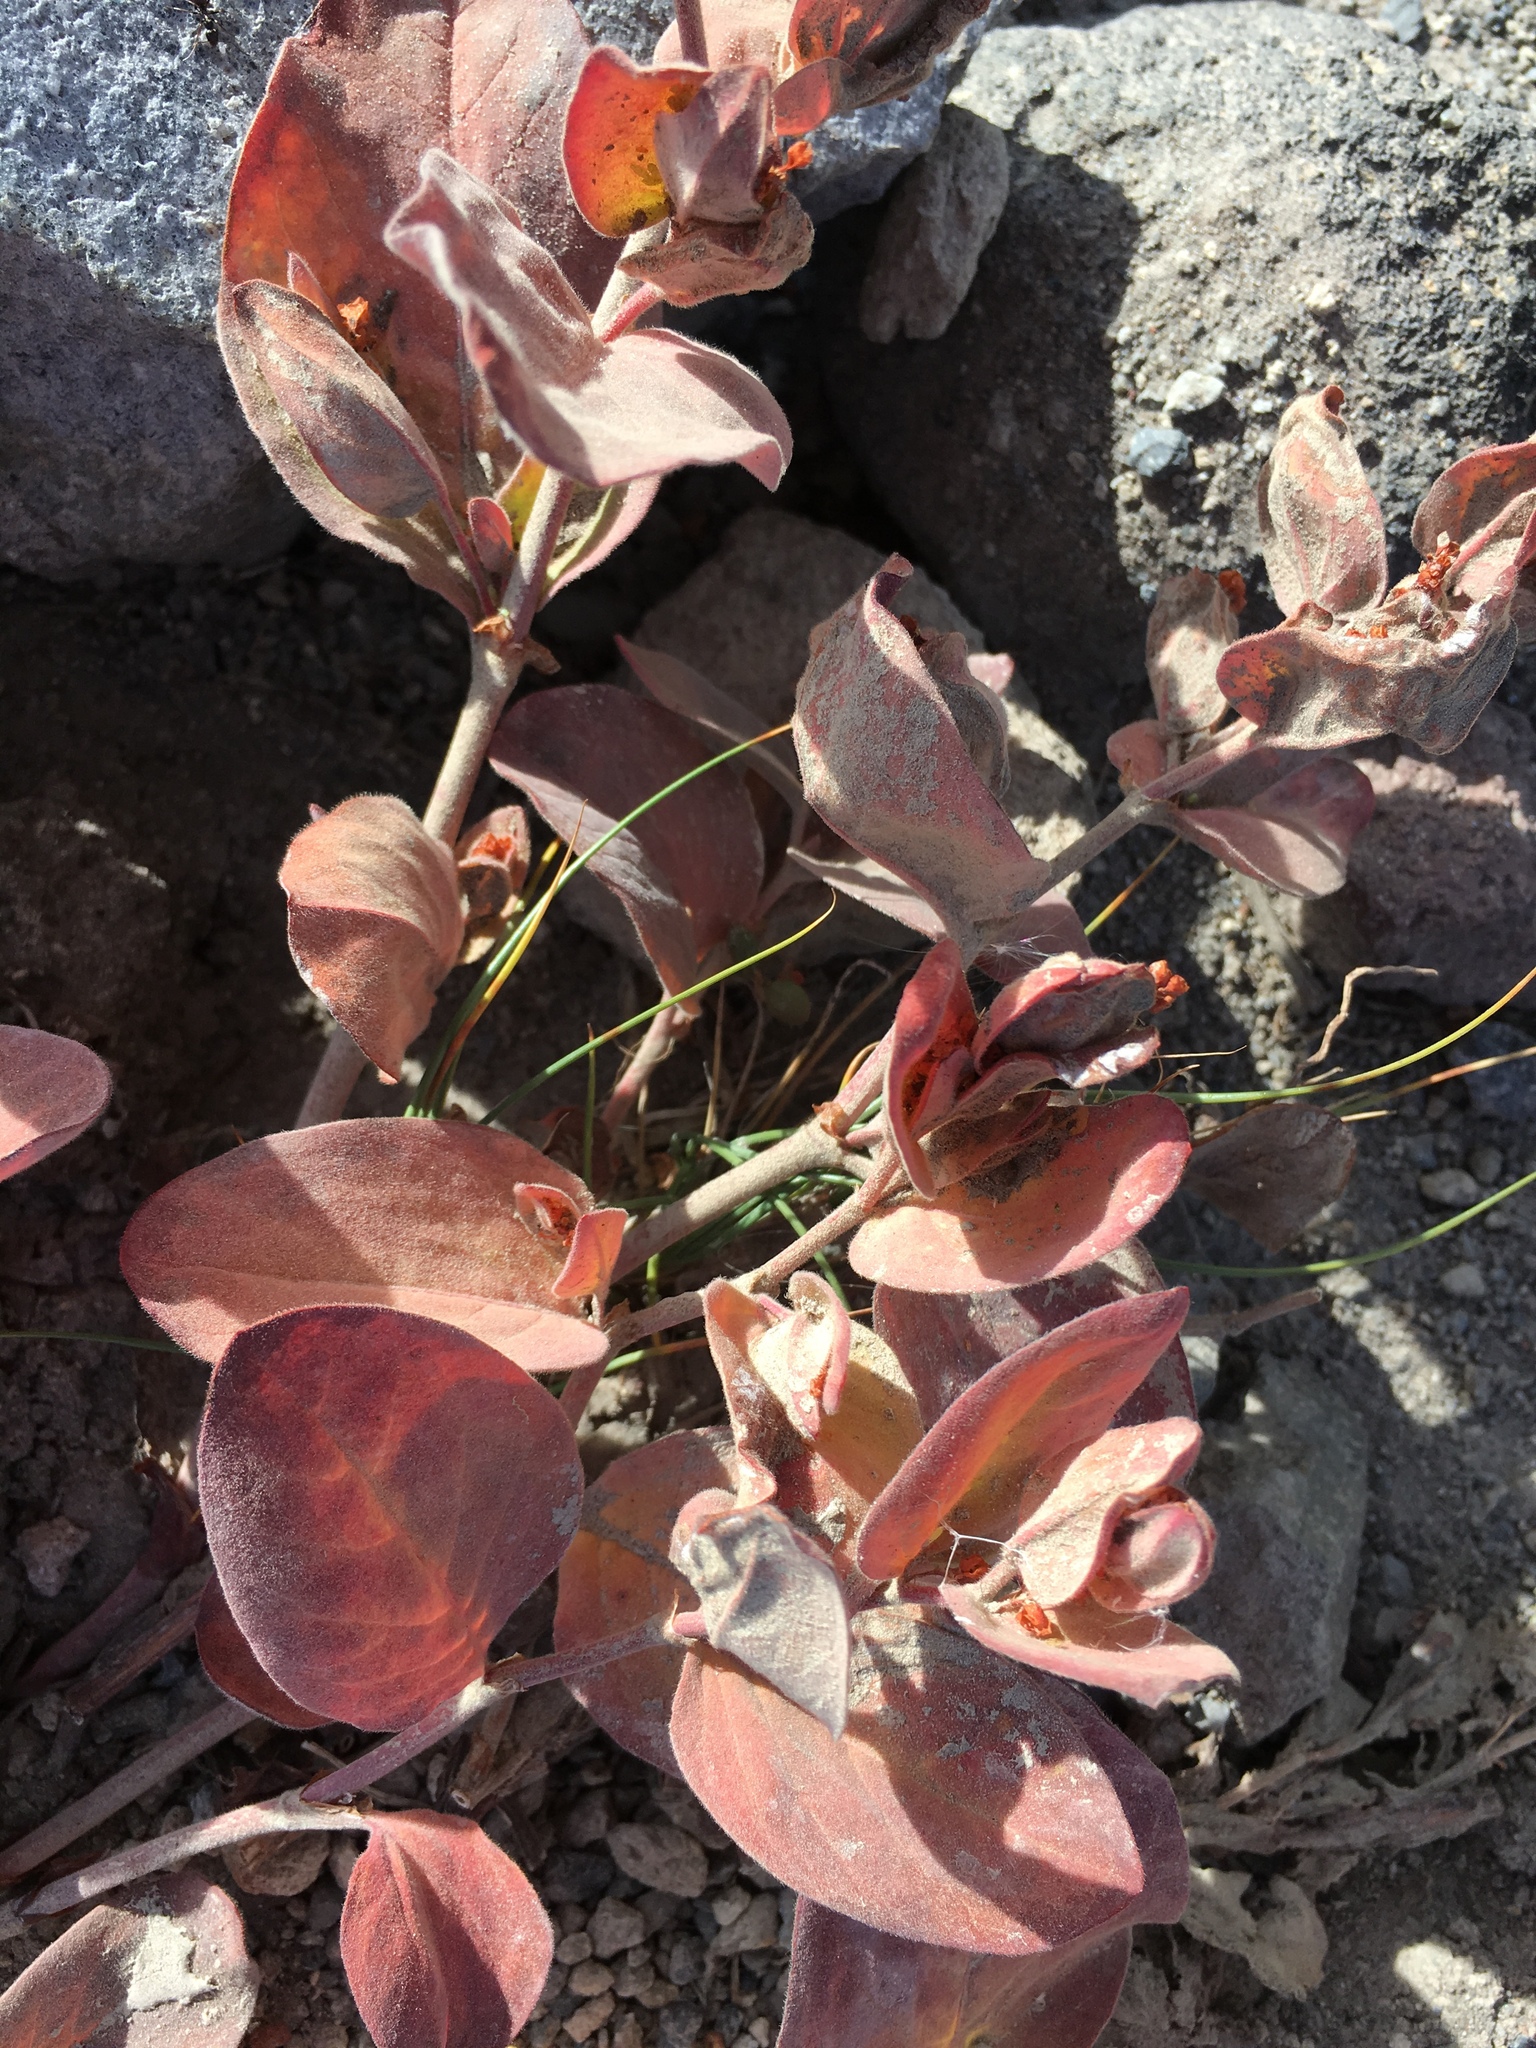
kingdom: Plantae
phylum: Tracheophyta
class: Magnoliopsida
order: Caryophyllales
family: Polygonaceae
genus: Koenigia
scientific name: Koenigia davisiae
